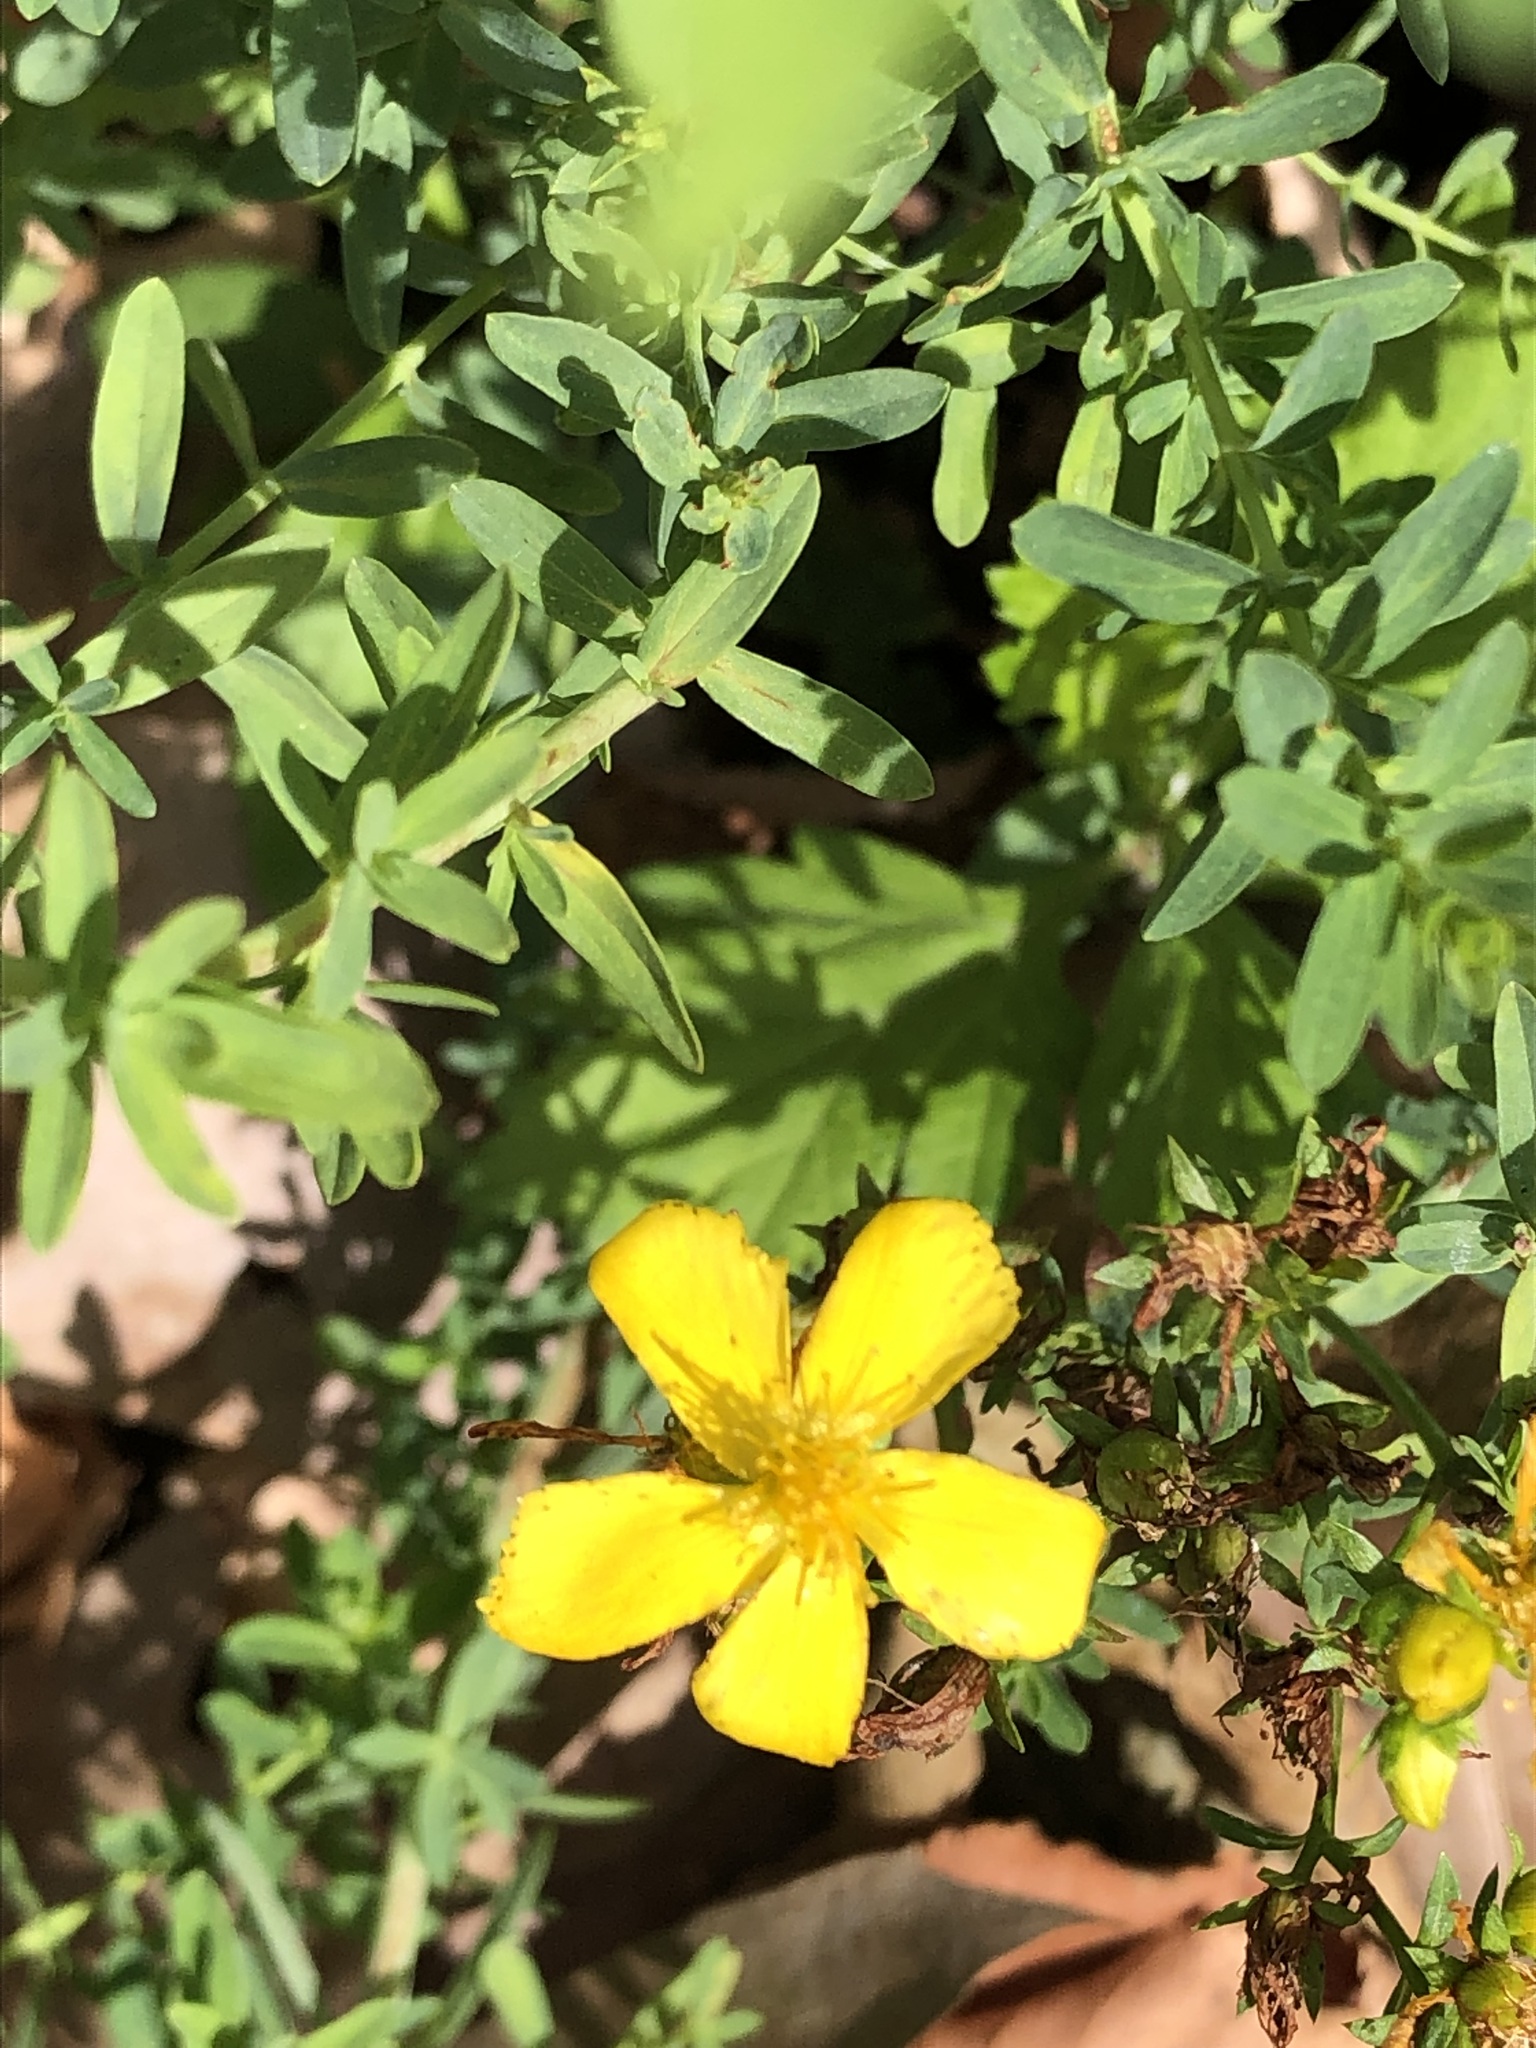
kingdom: Plantae
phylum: Tracheophyta
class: Magnoliopsida
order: Malpighiales
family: Hypericaceae
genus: Hypericum
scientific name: Hypericum perforatum
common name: Common st. johnswort
